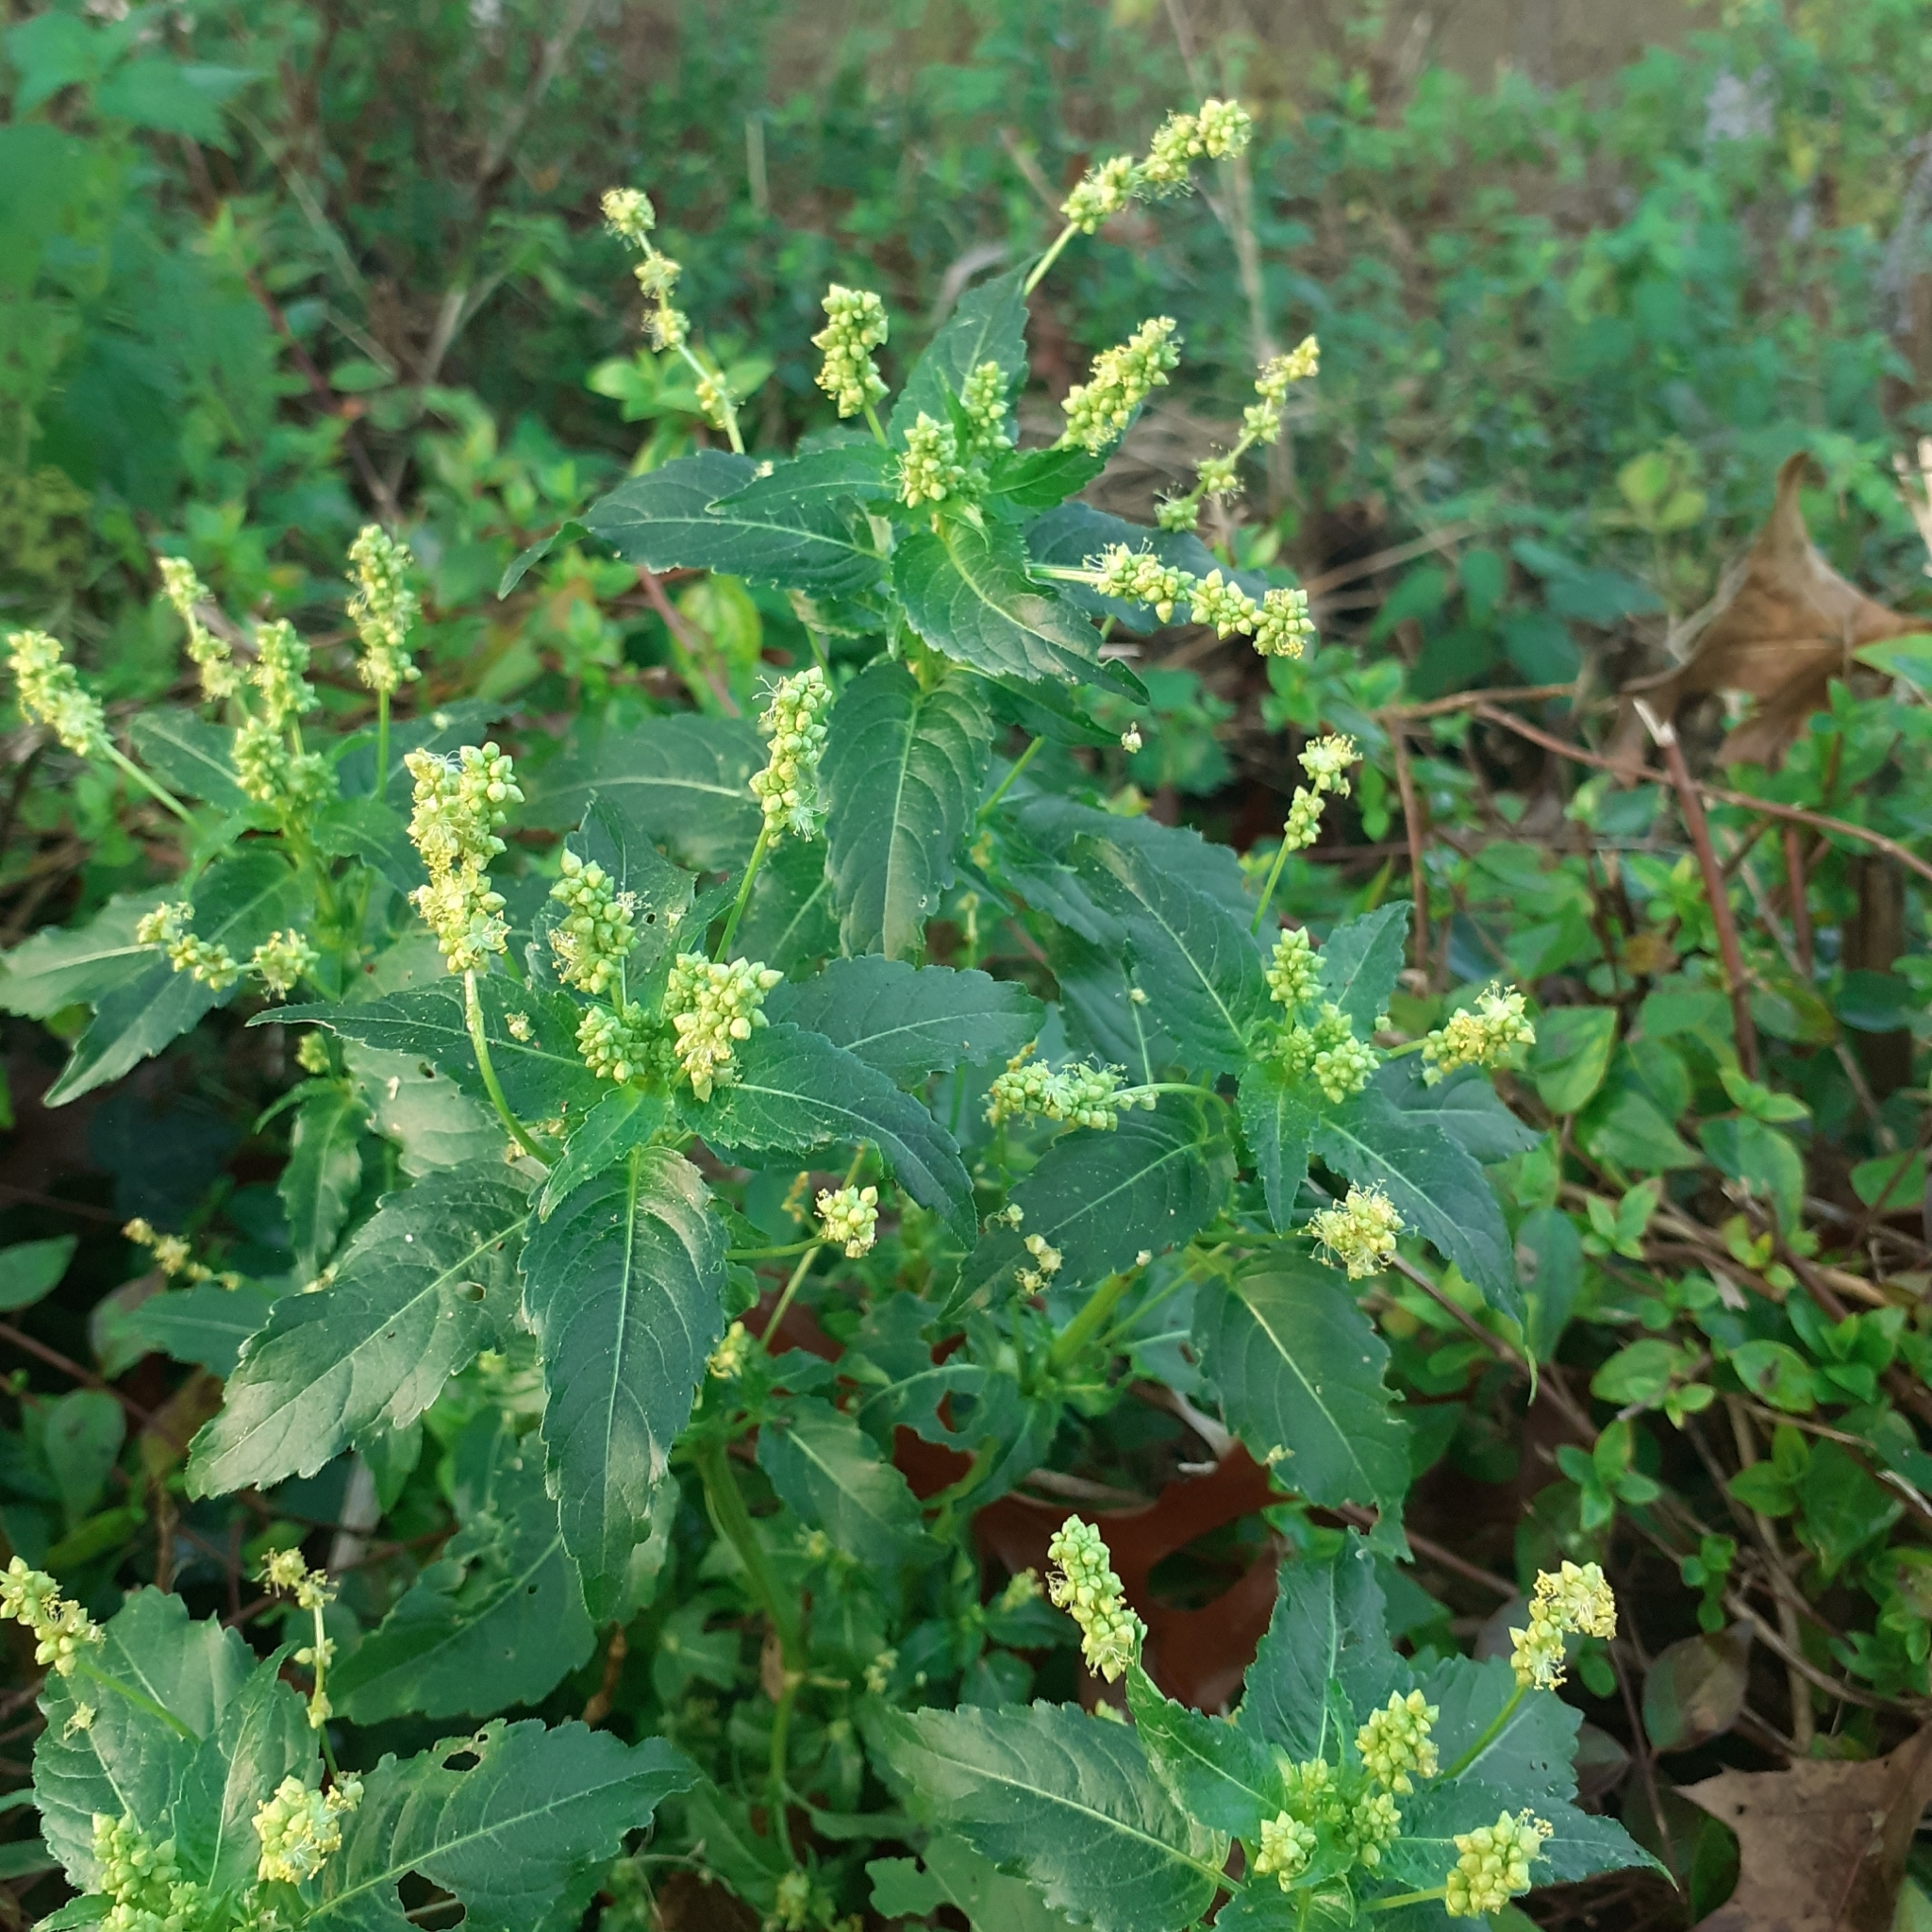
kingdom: Plantae
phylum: Tracheophyta
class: Magnoliopsida
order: Malpighiales
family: Euphorbiaceae
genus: Mercurialis
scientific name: Mercurialis annua
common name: Annual mercury
